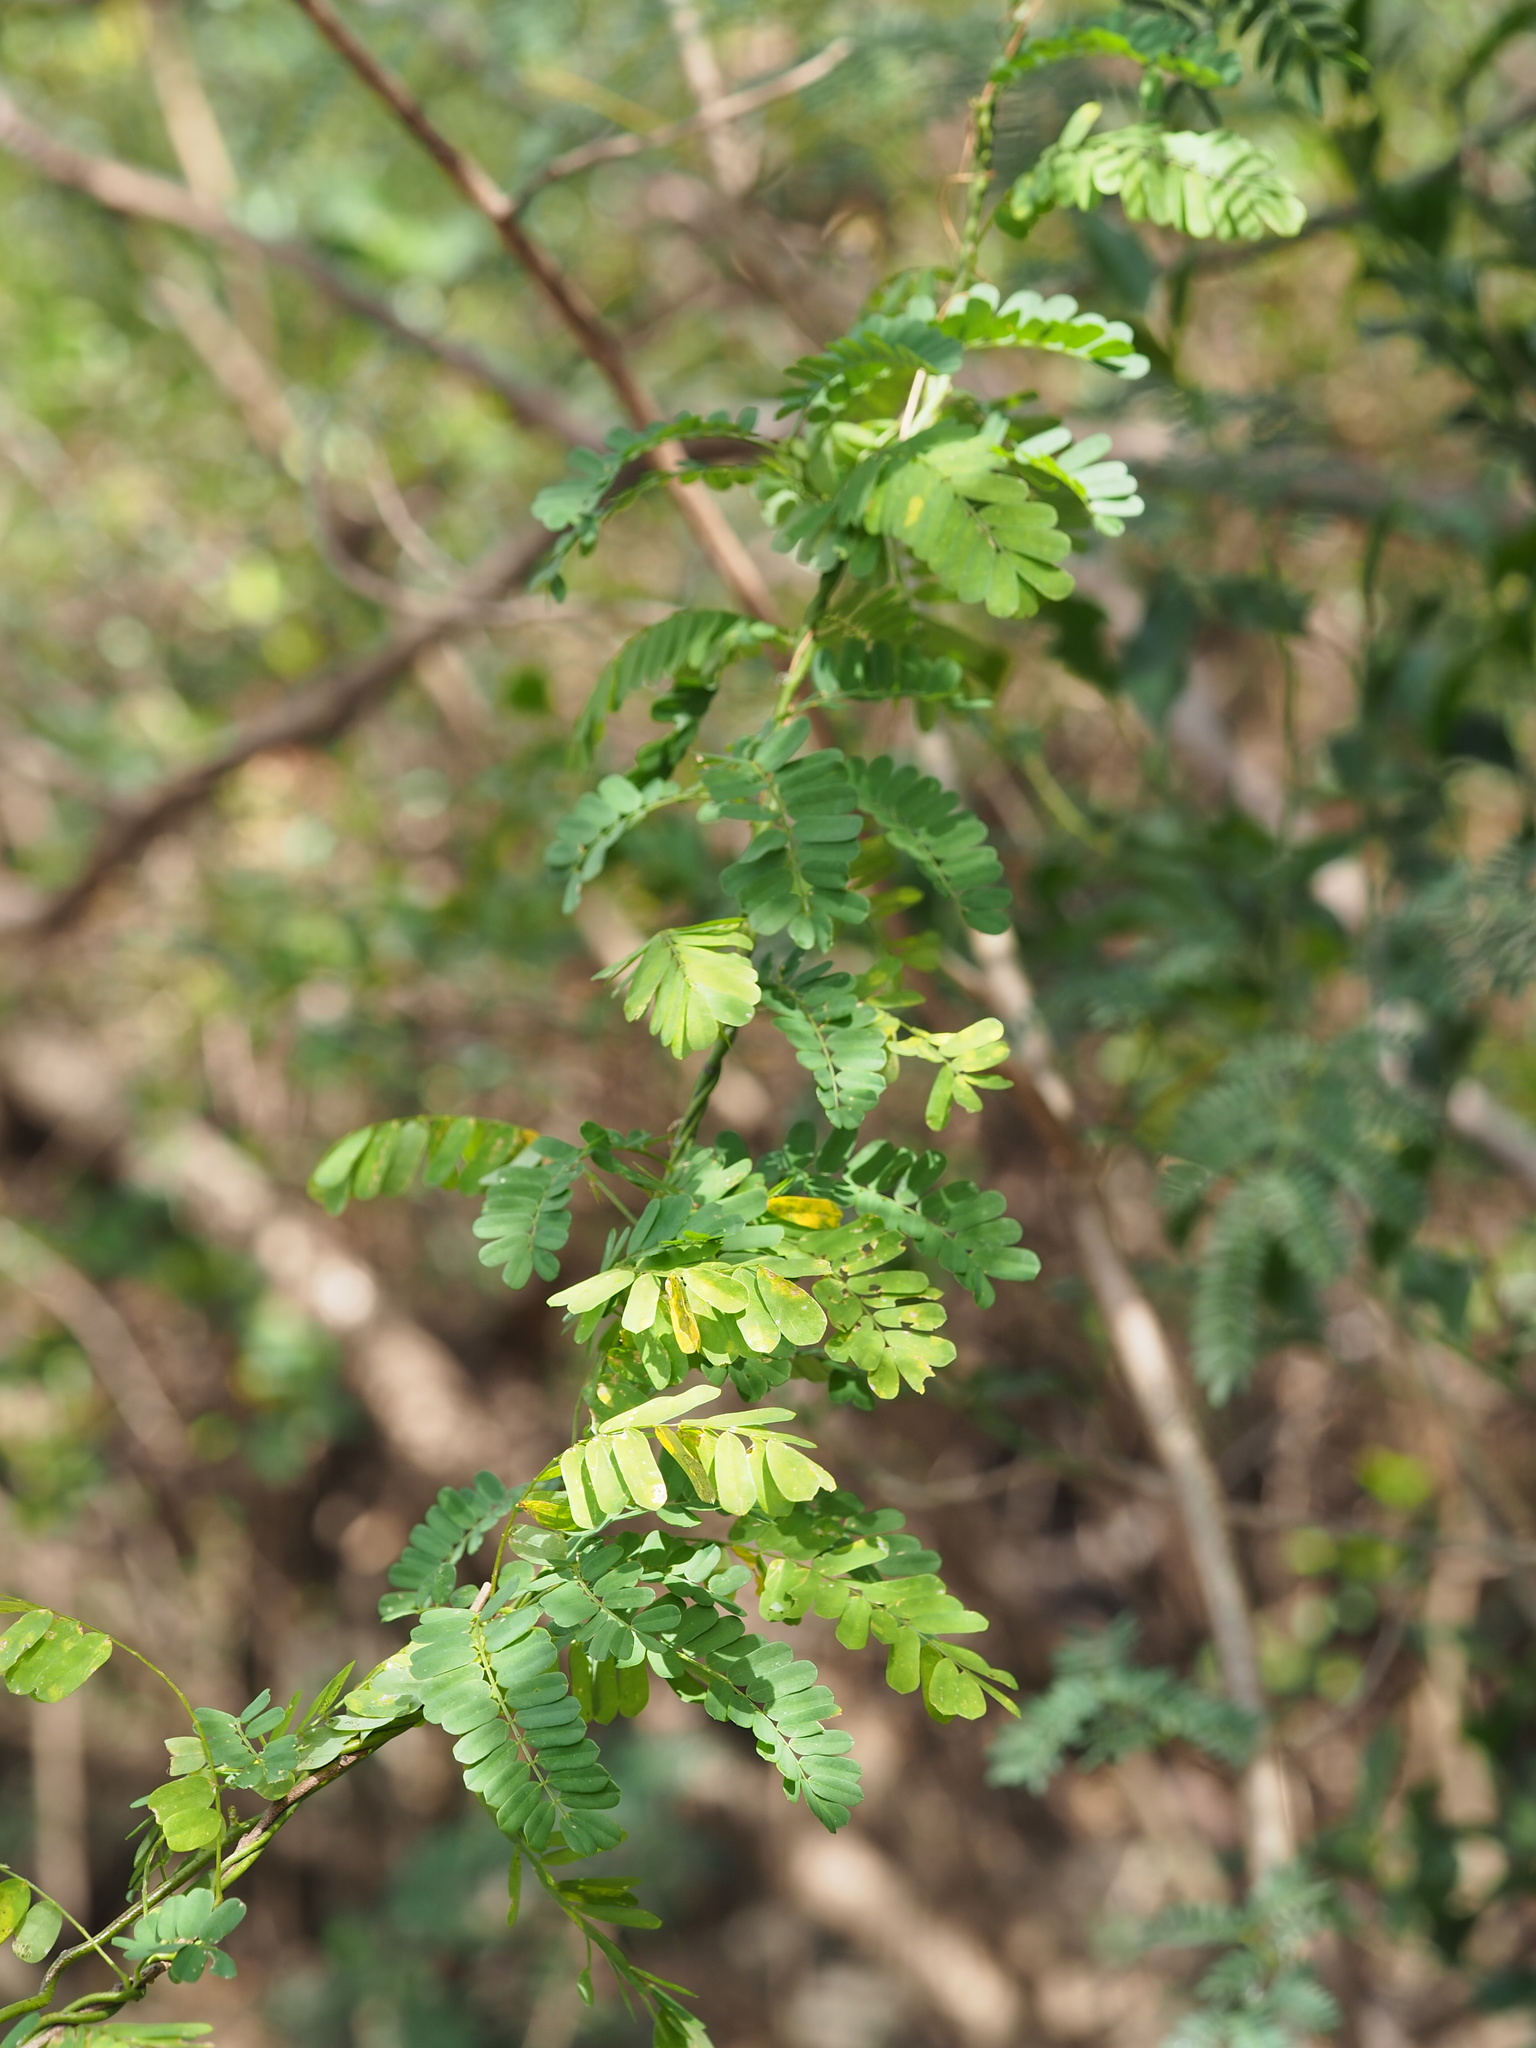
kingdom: Plantae
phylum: Tracheophyta
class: Magnoliopsida
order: Fabales
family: Fabaceae
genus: Abrus
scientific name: Abrus precatorius
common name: Rosarypea
